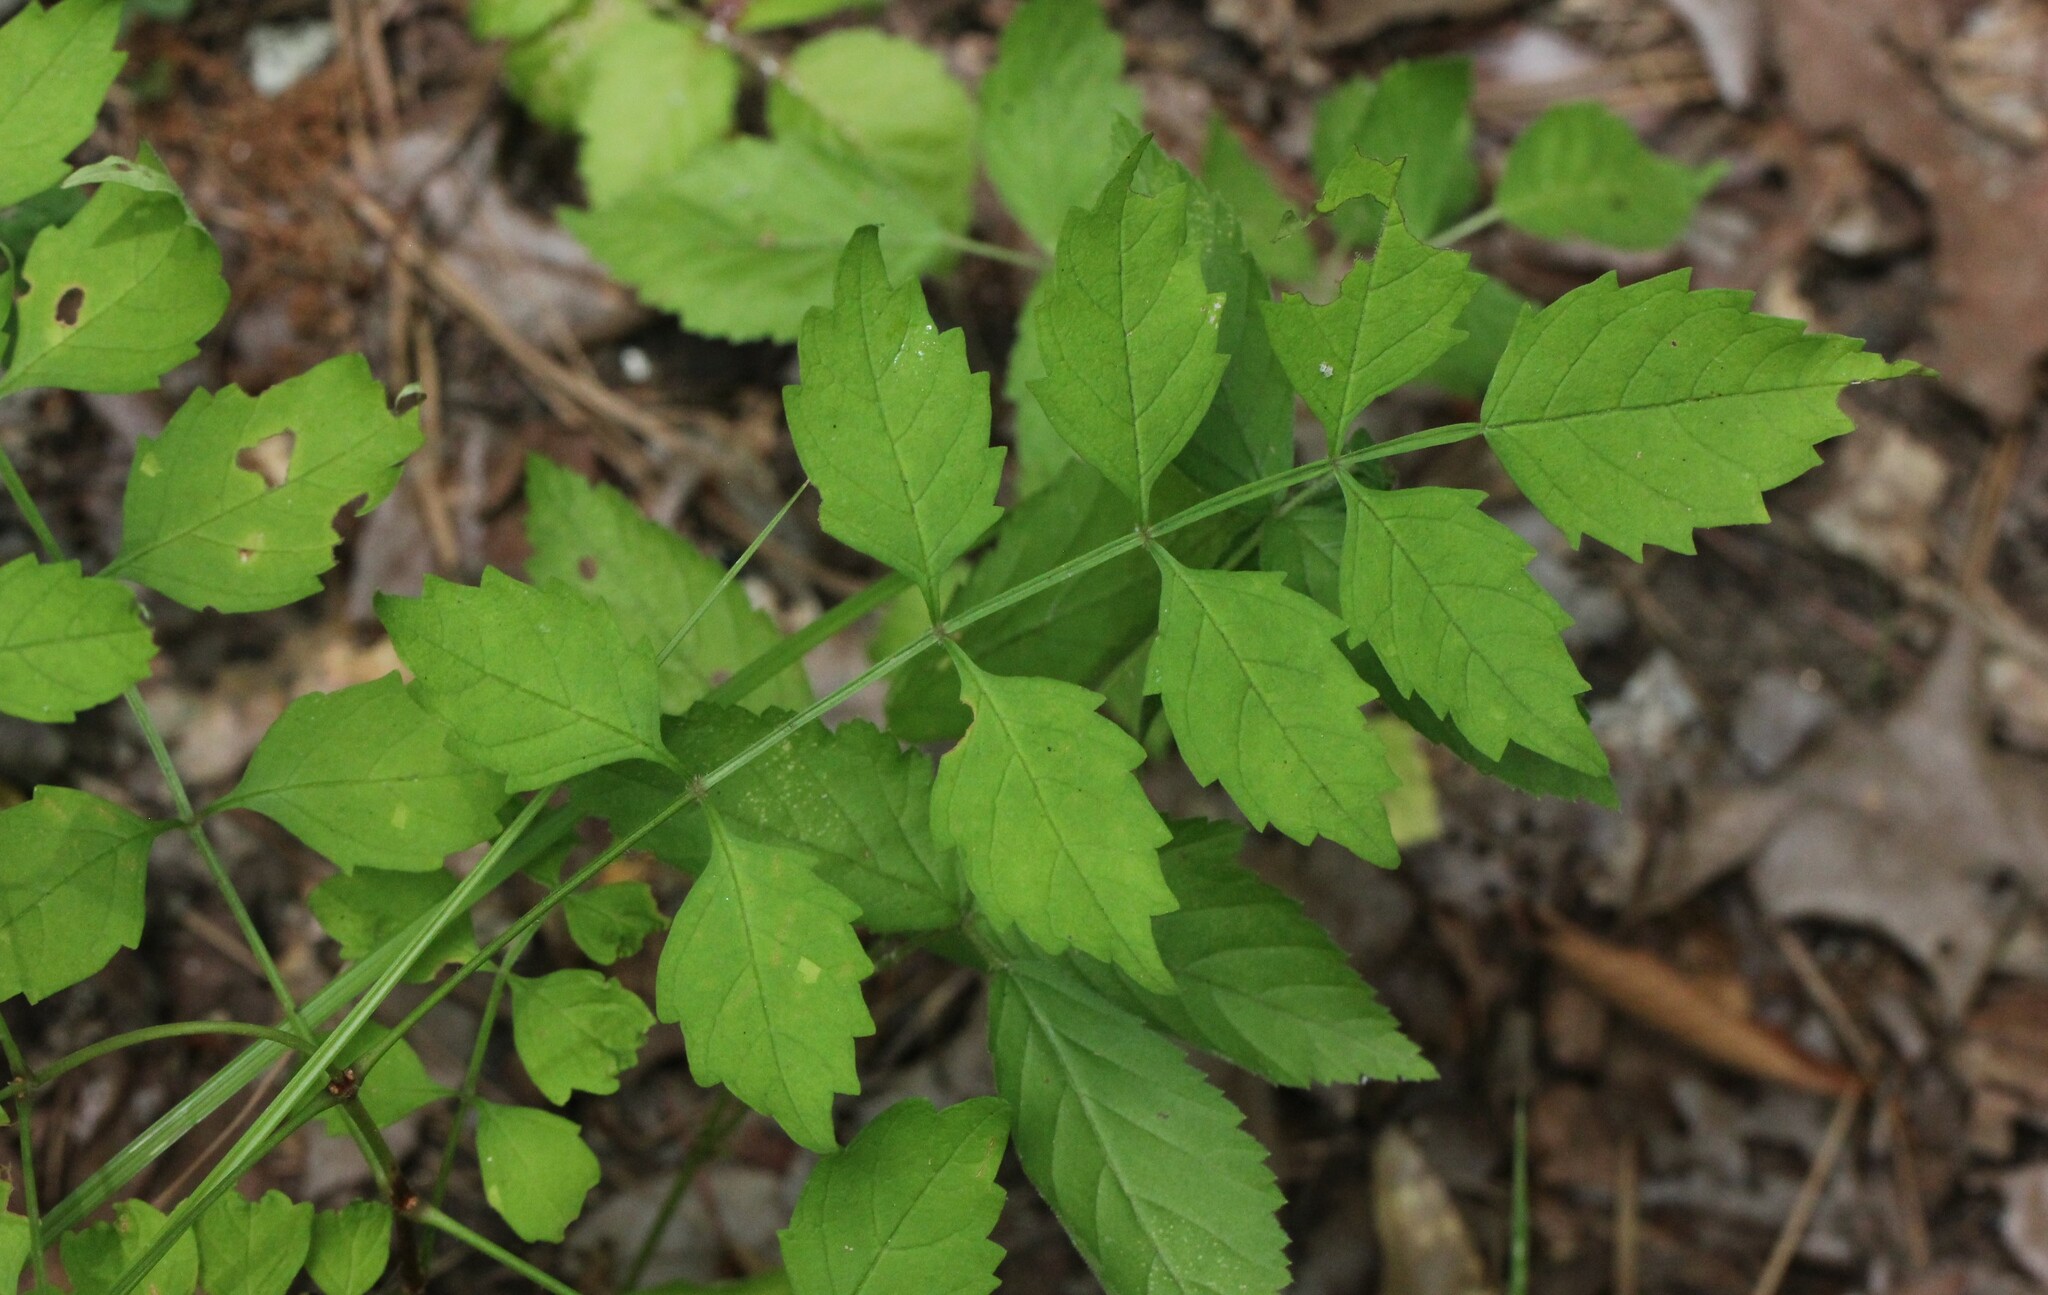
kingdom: Plantae
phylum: Tracheophyta
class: Magnoliopsida
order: Lamiales
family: Bignoniaceae
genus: Campsis
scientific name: Campsis radicans
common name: Trumpet-creeper
